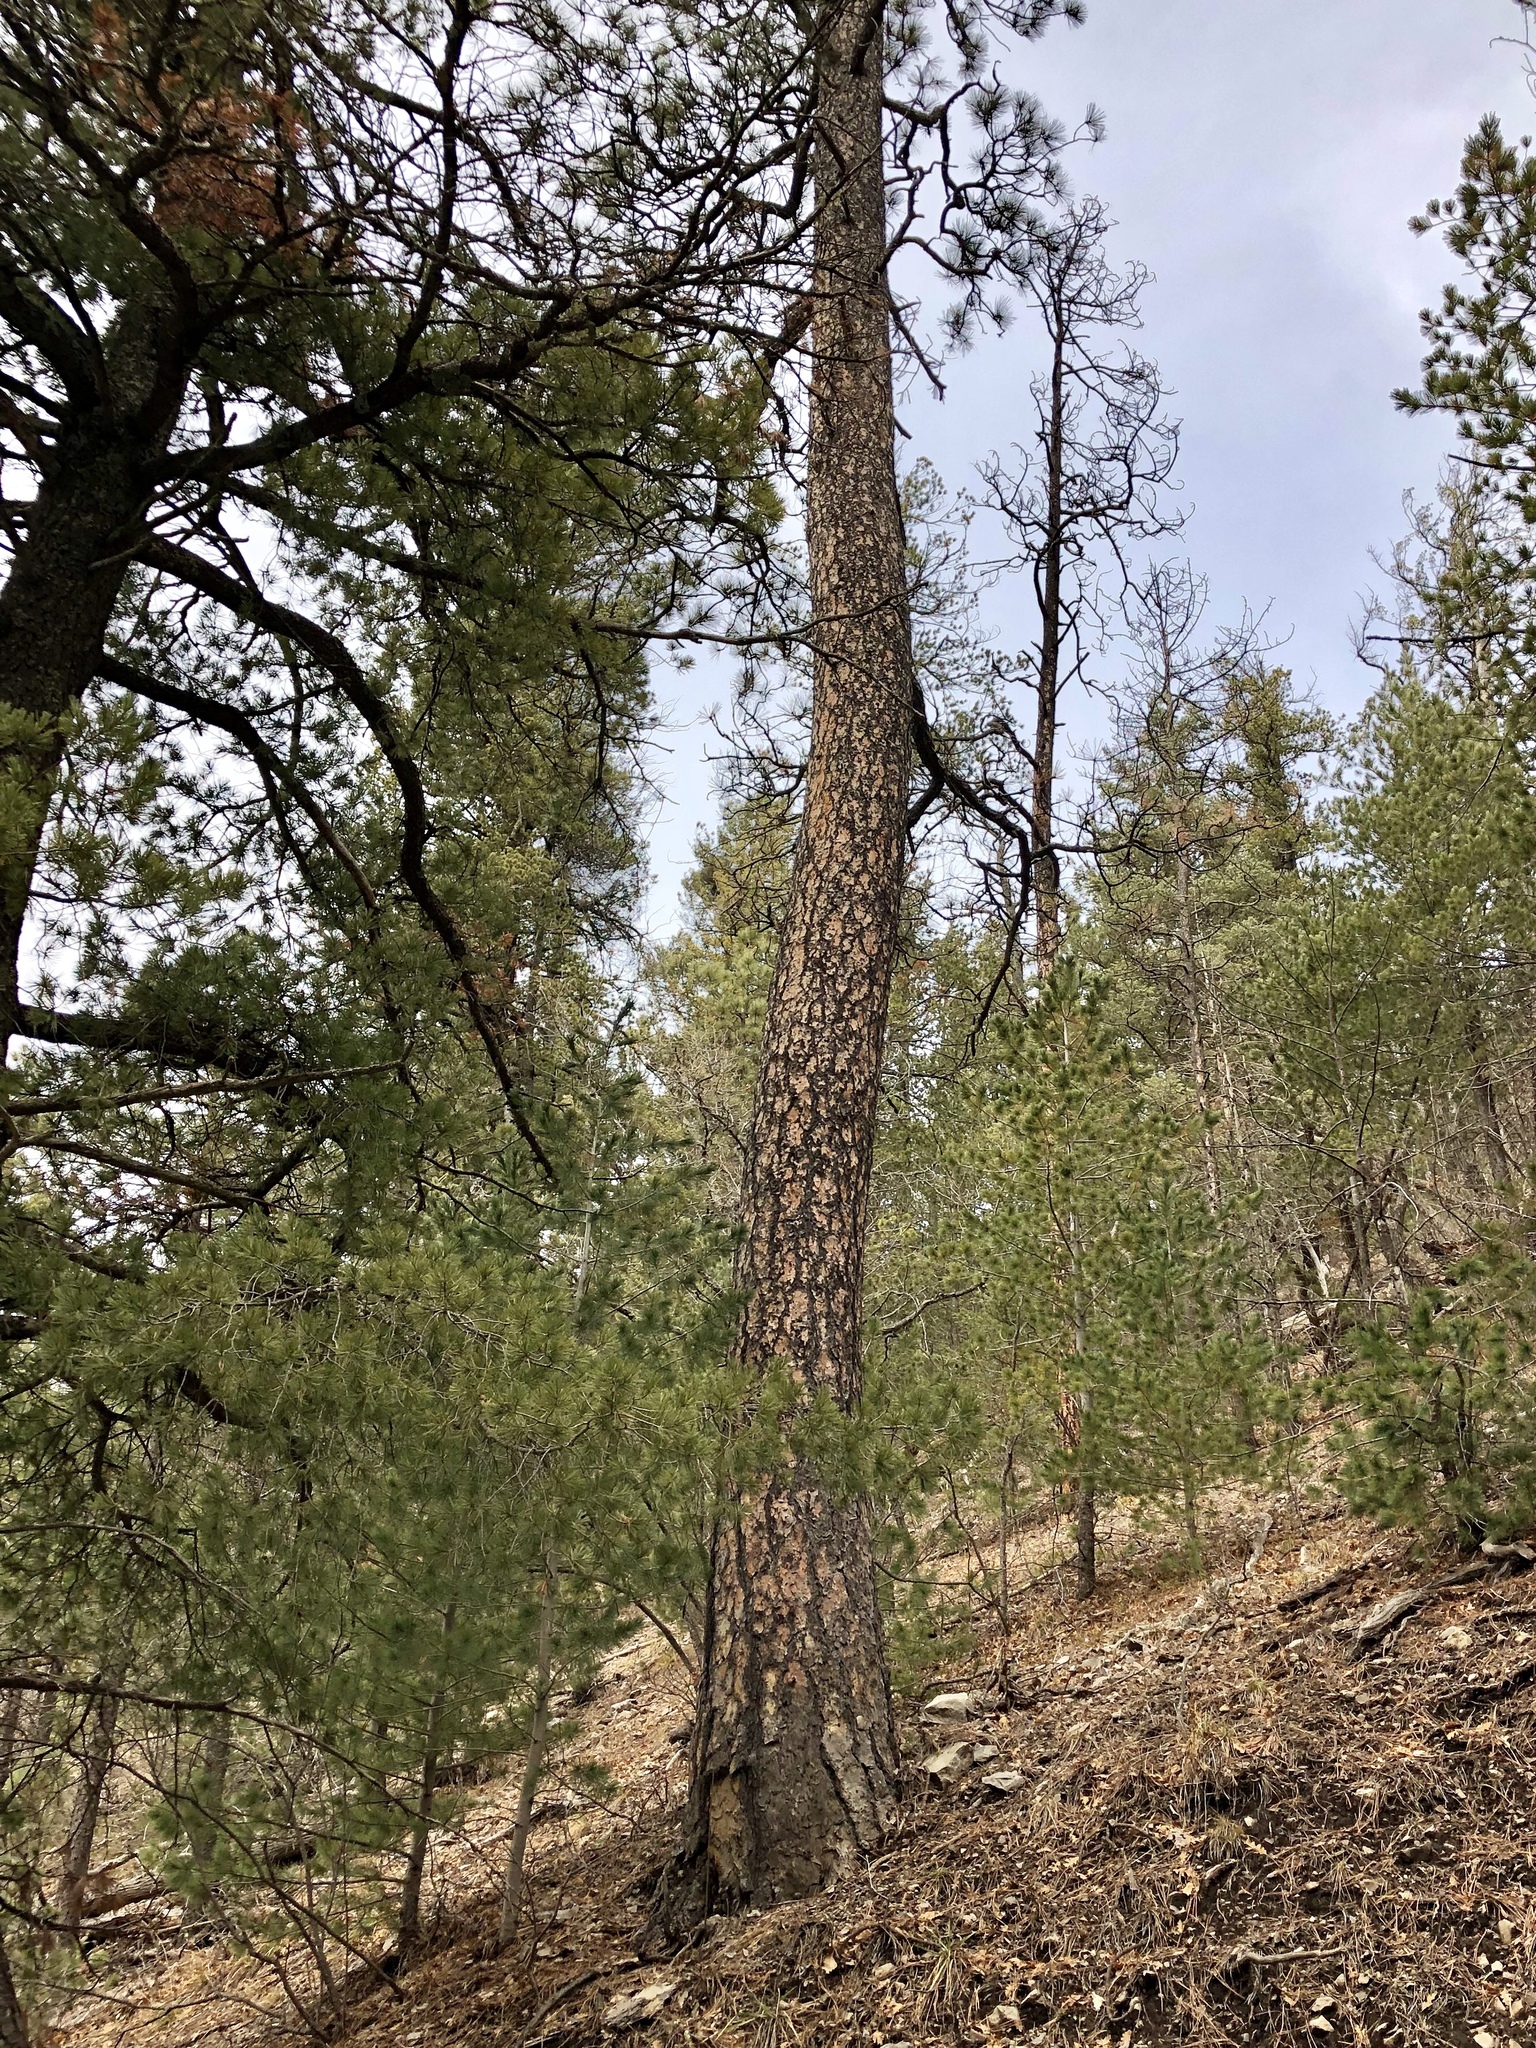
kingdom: Plantae
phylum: Tracheophyta
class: Pinopsida
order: Pinales
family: Pinaceae
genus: Pinus
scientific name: Pinus ponderosa
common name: Western yellow-pine
